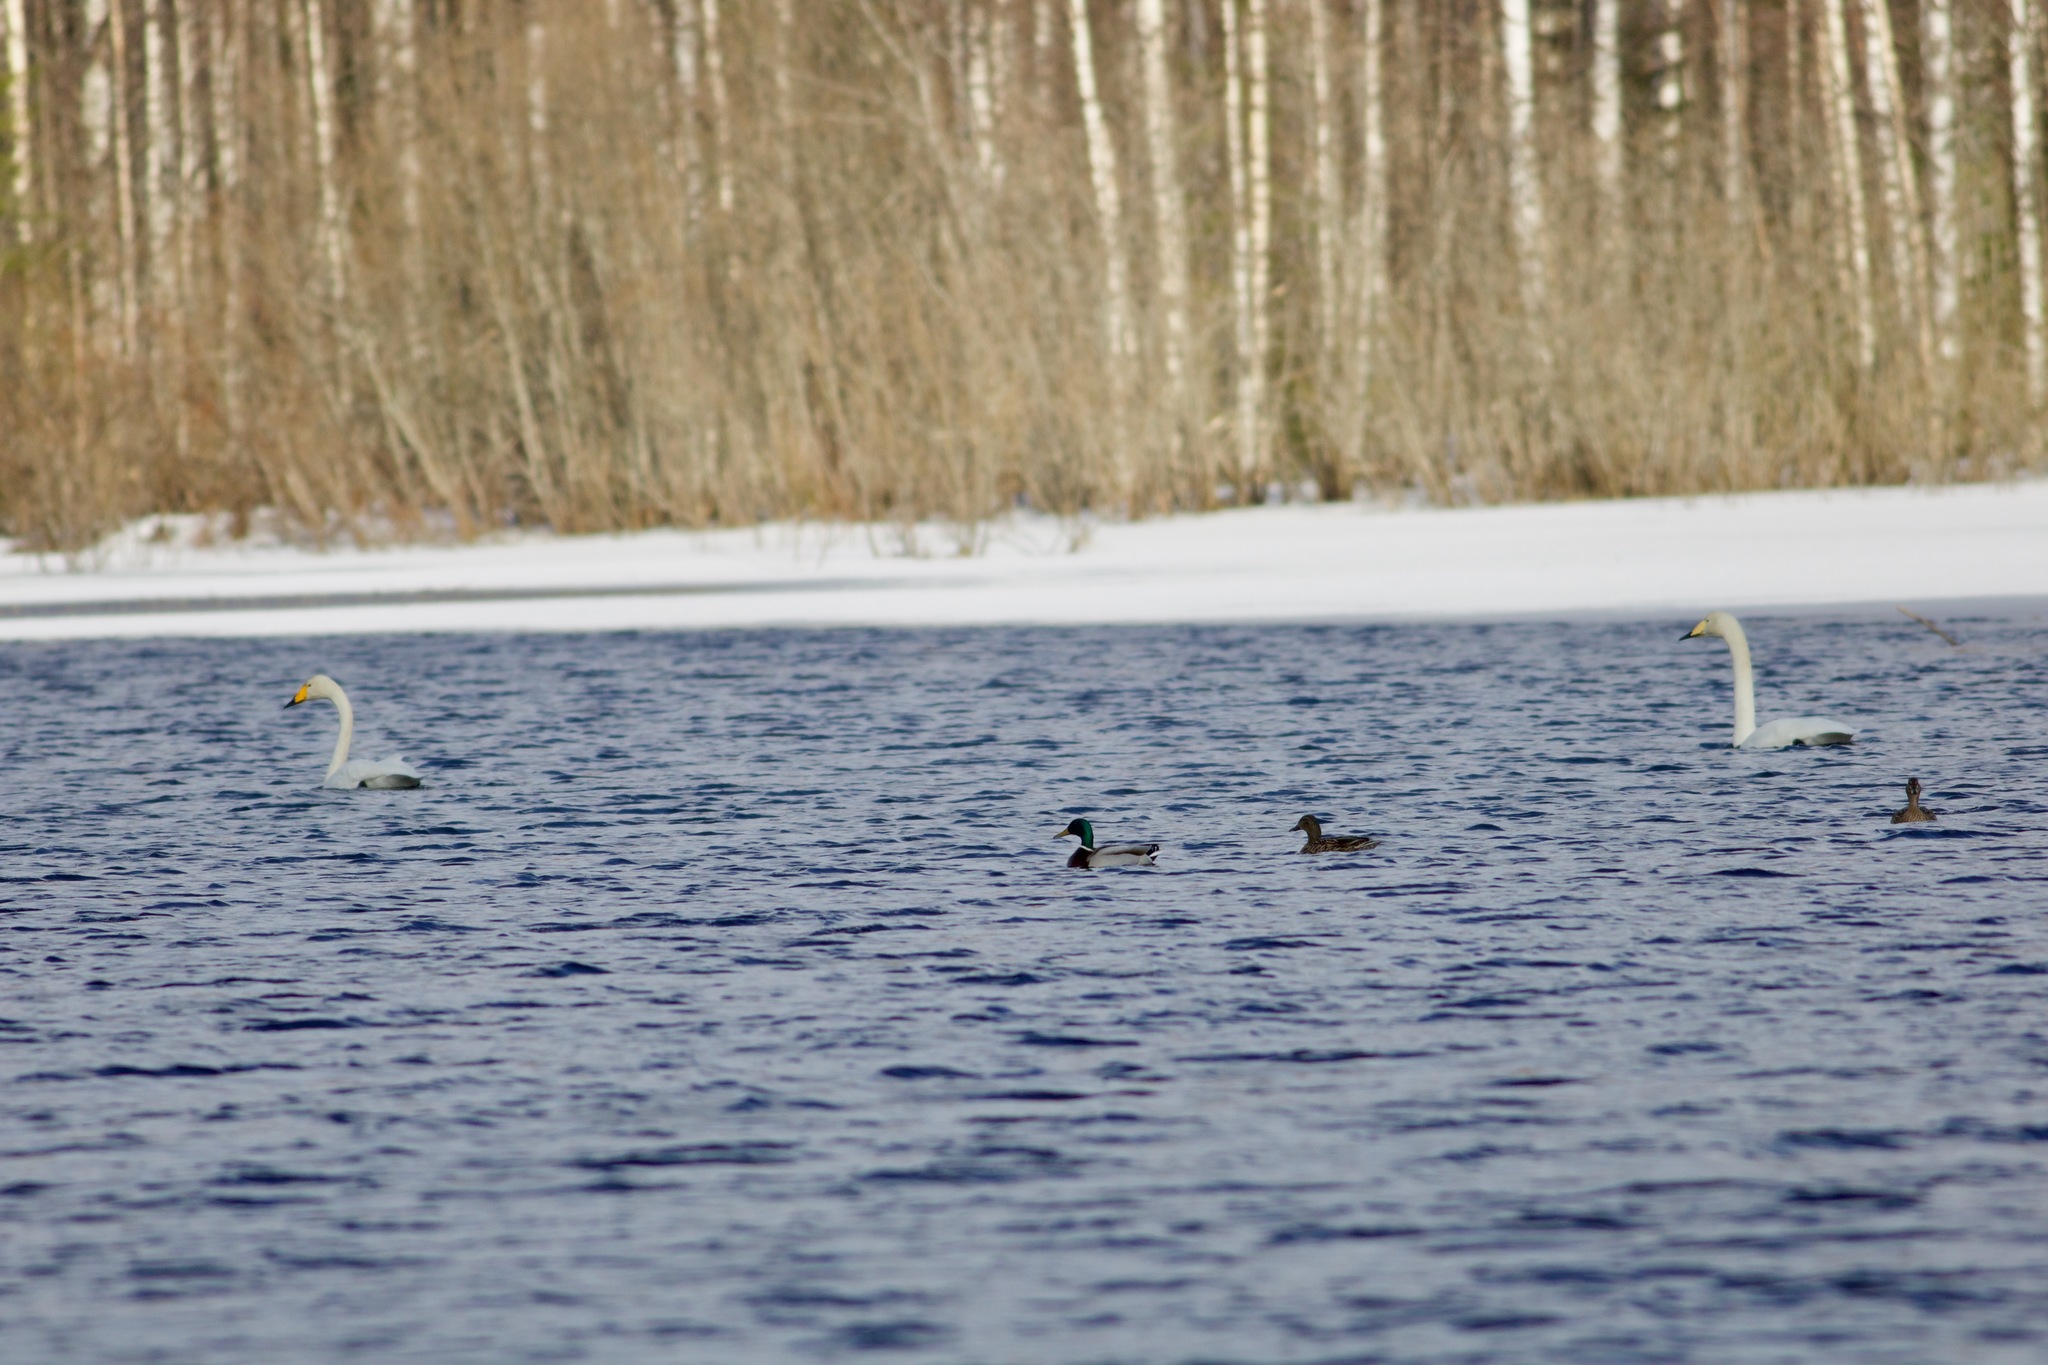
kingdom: Animalia
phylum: Chordata
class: Aves
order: Anseriformes
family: Anatidae
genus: Anas
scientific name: Anas platyrhynchos
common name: Mallard
